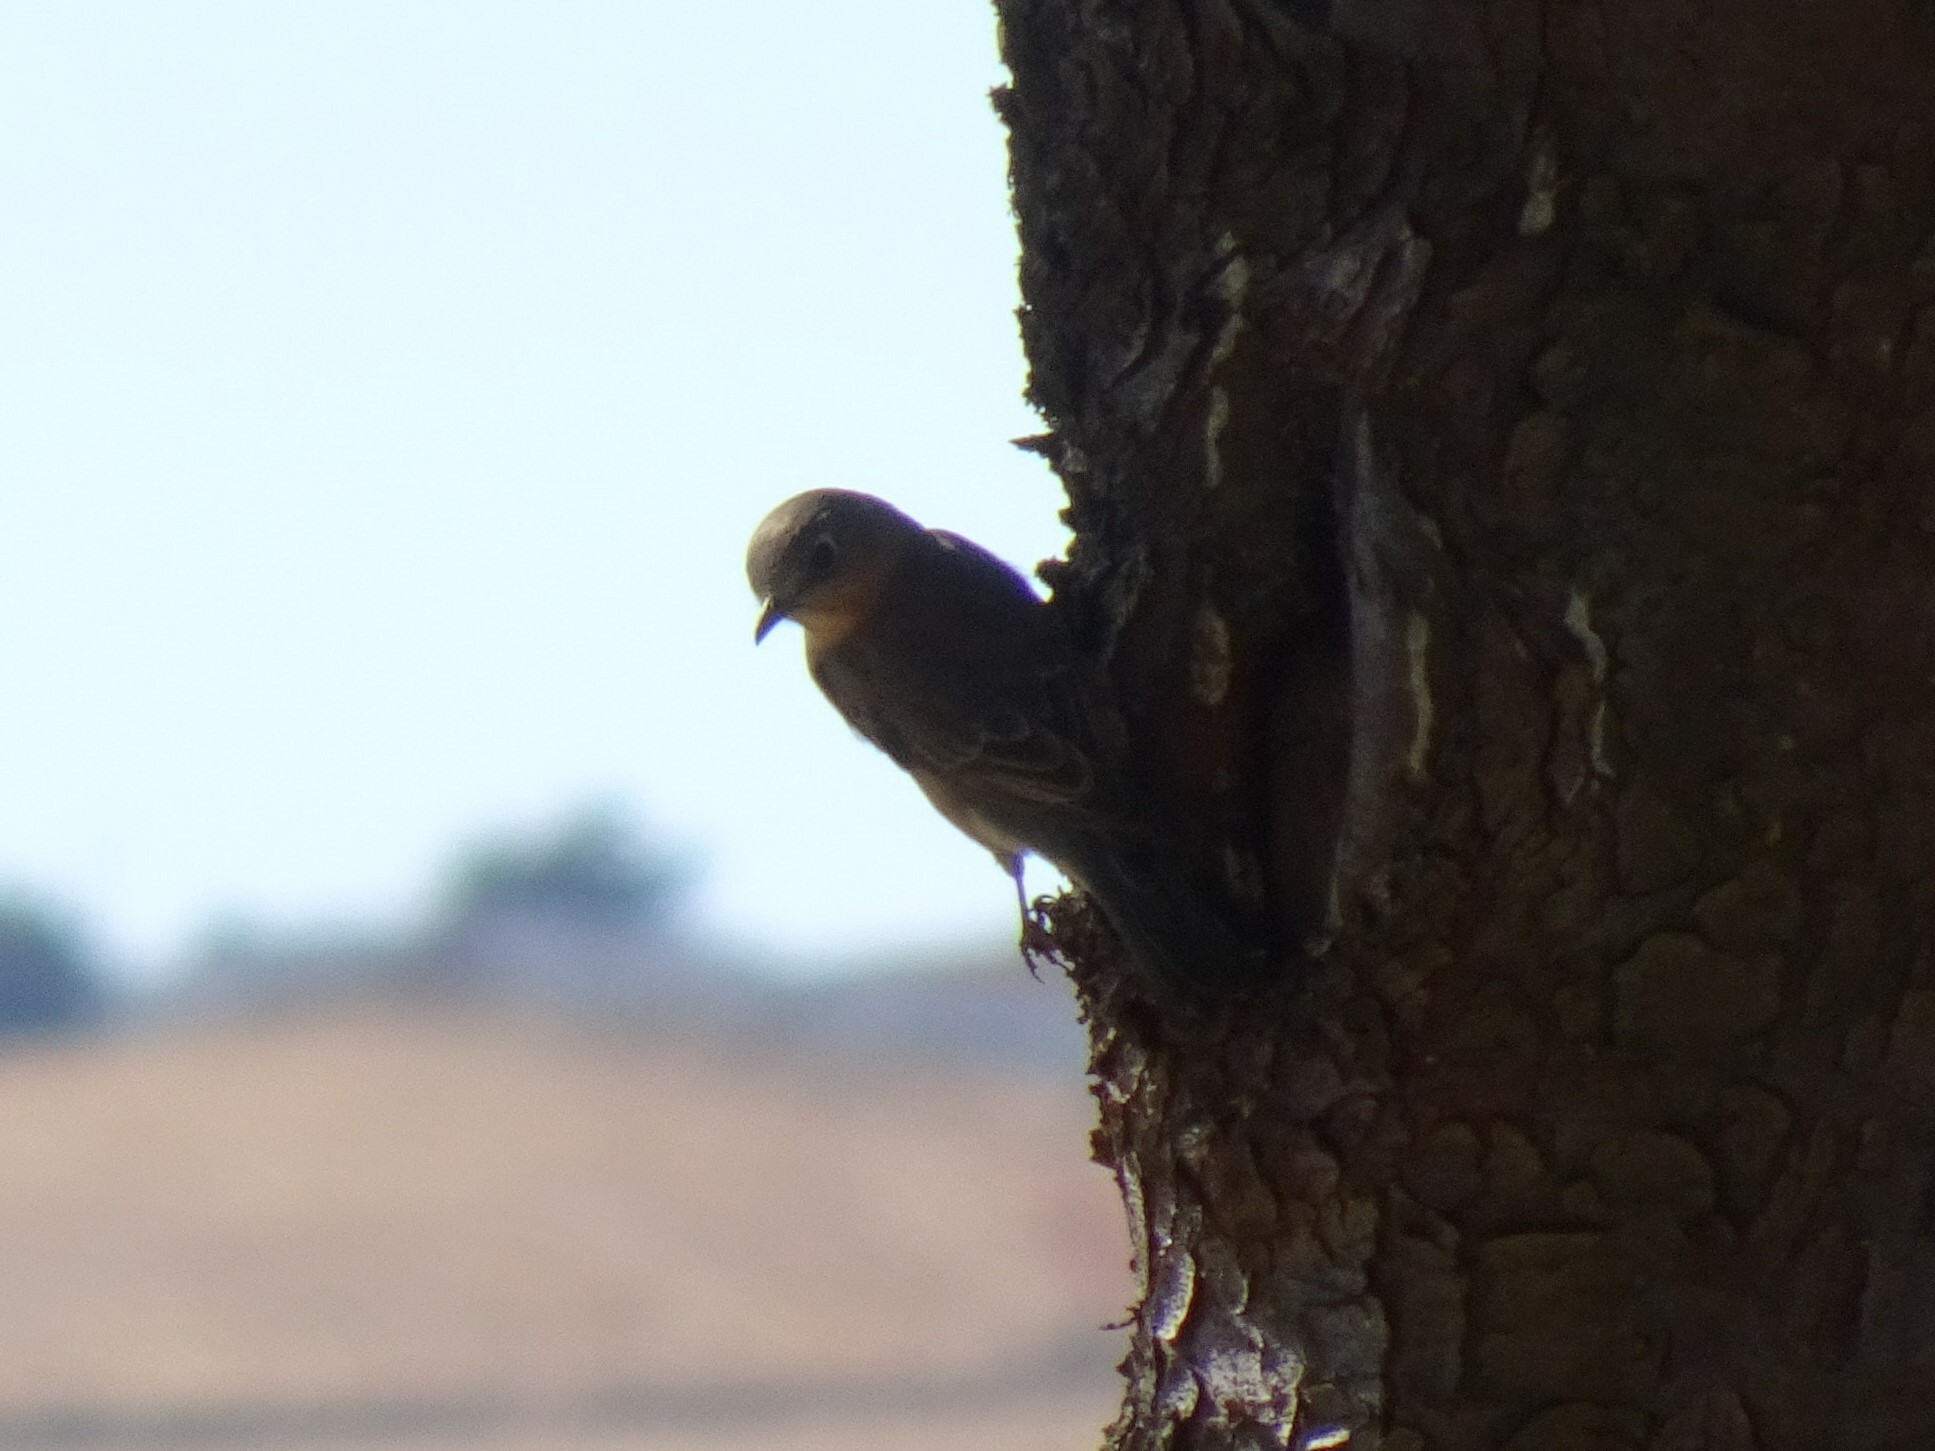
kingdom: Animalia
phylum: Chordata
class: Aves
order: Passeriformes
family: Turdidae
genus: Sialia
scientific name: Sialia sialis
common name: Eastern bluebird
